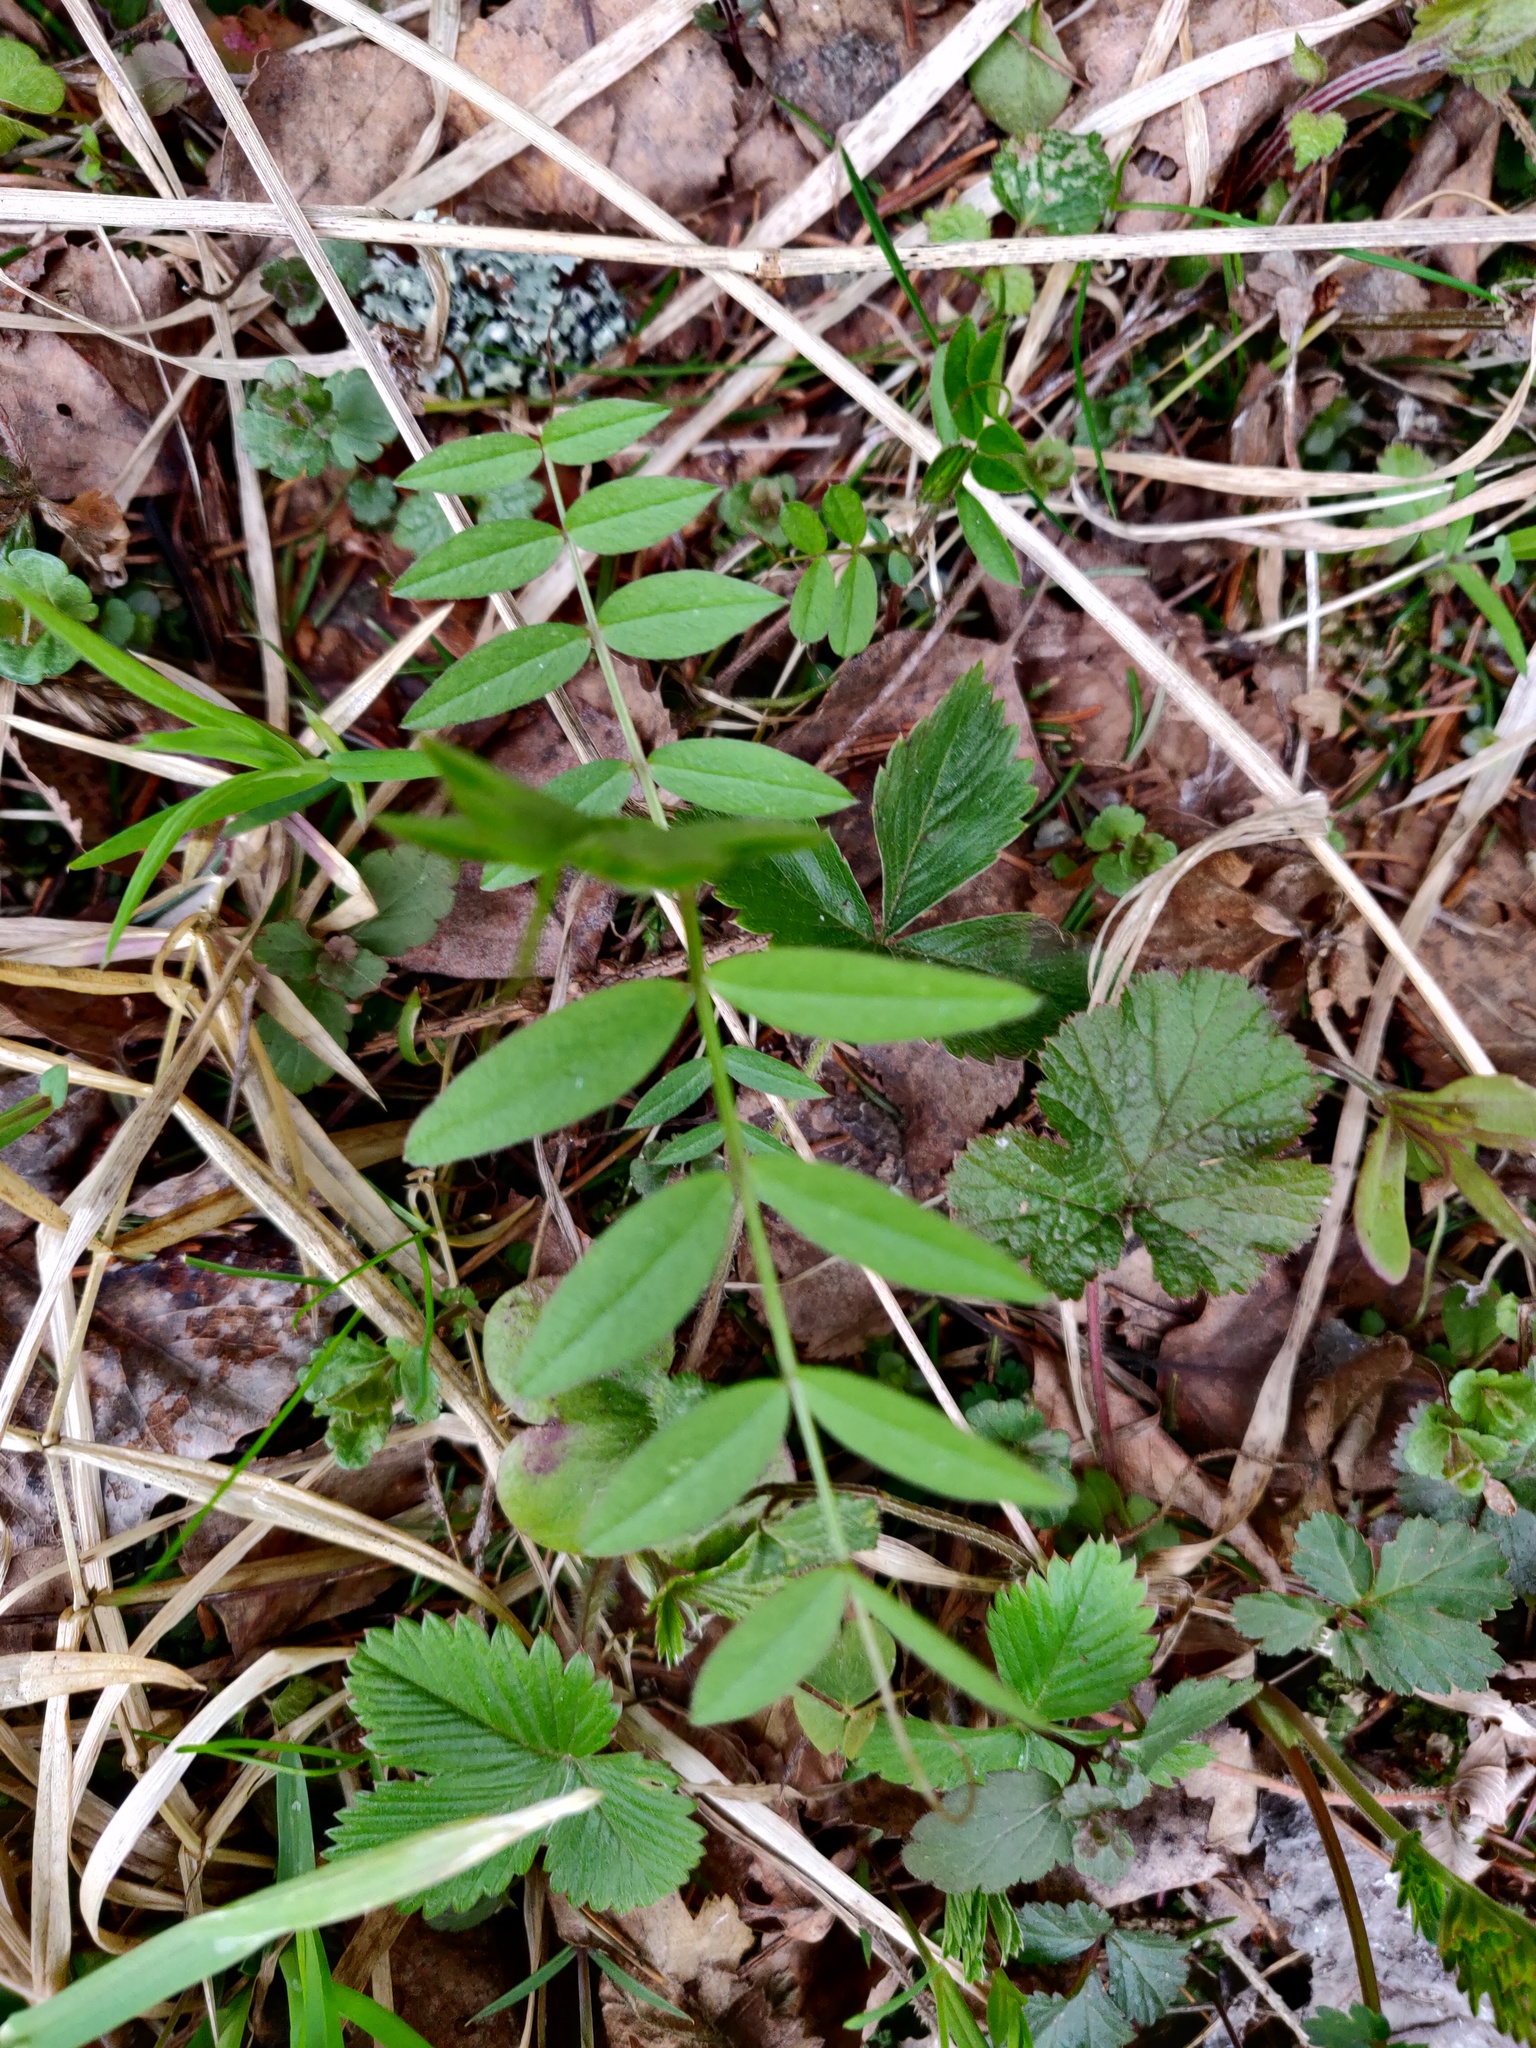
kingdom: Plantae
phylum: Tracheophyta
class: Magnoliopsida
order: Fabales
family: Fabaceae
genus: Vicia
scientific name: Vicia sepium
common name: Bush vetch
